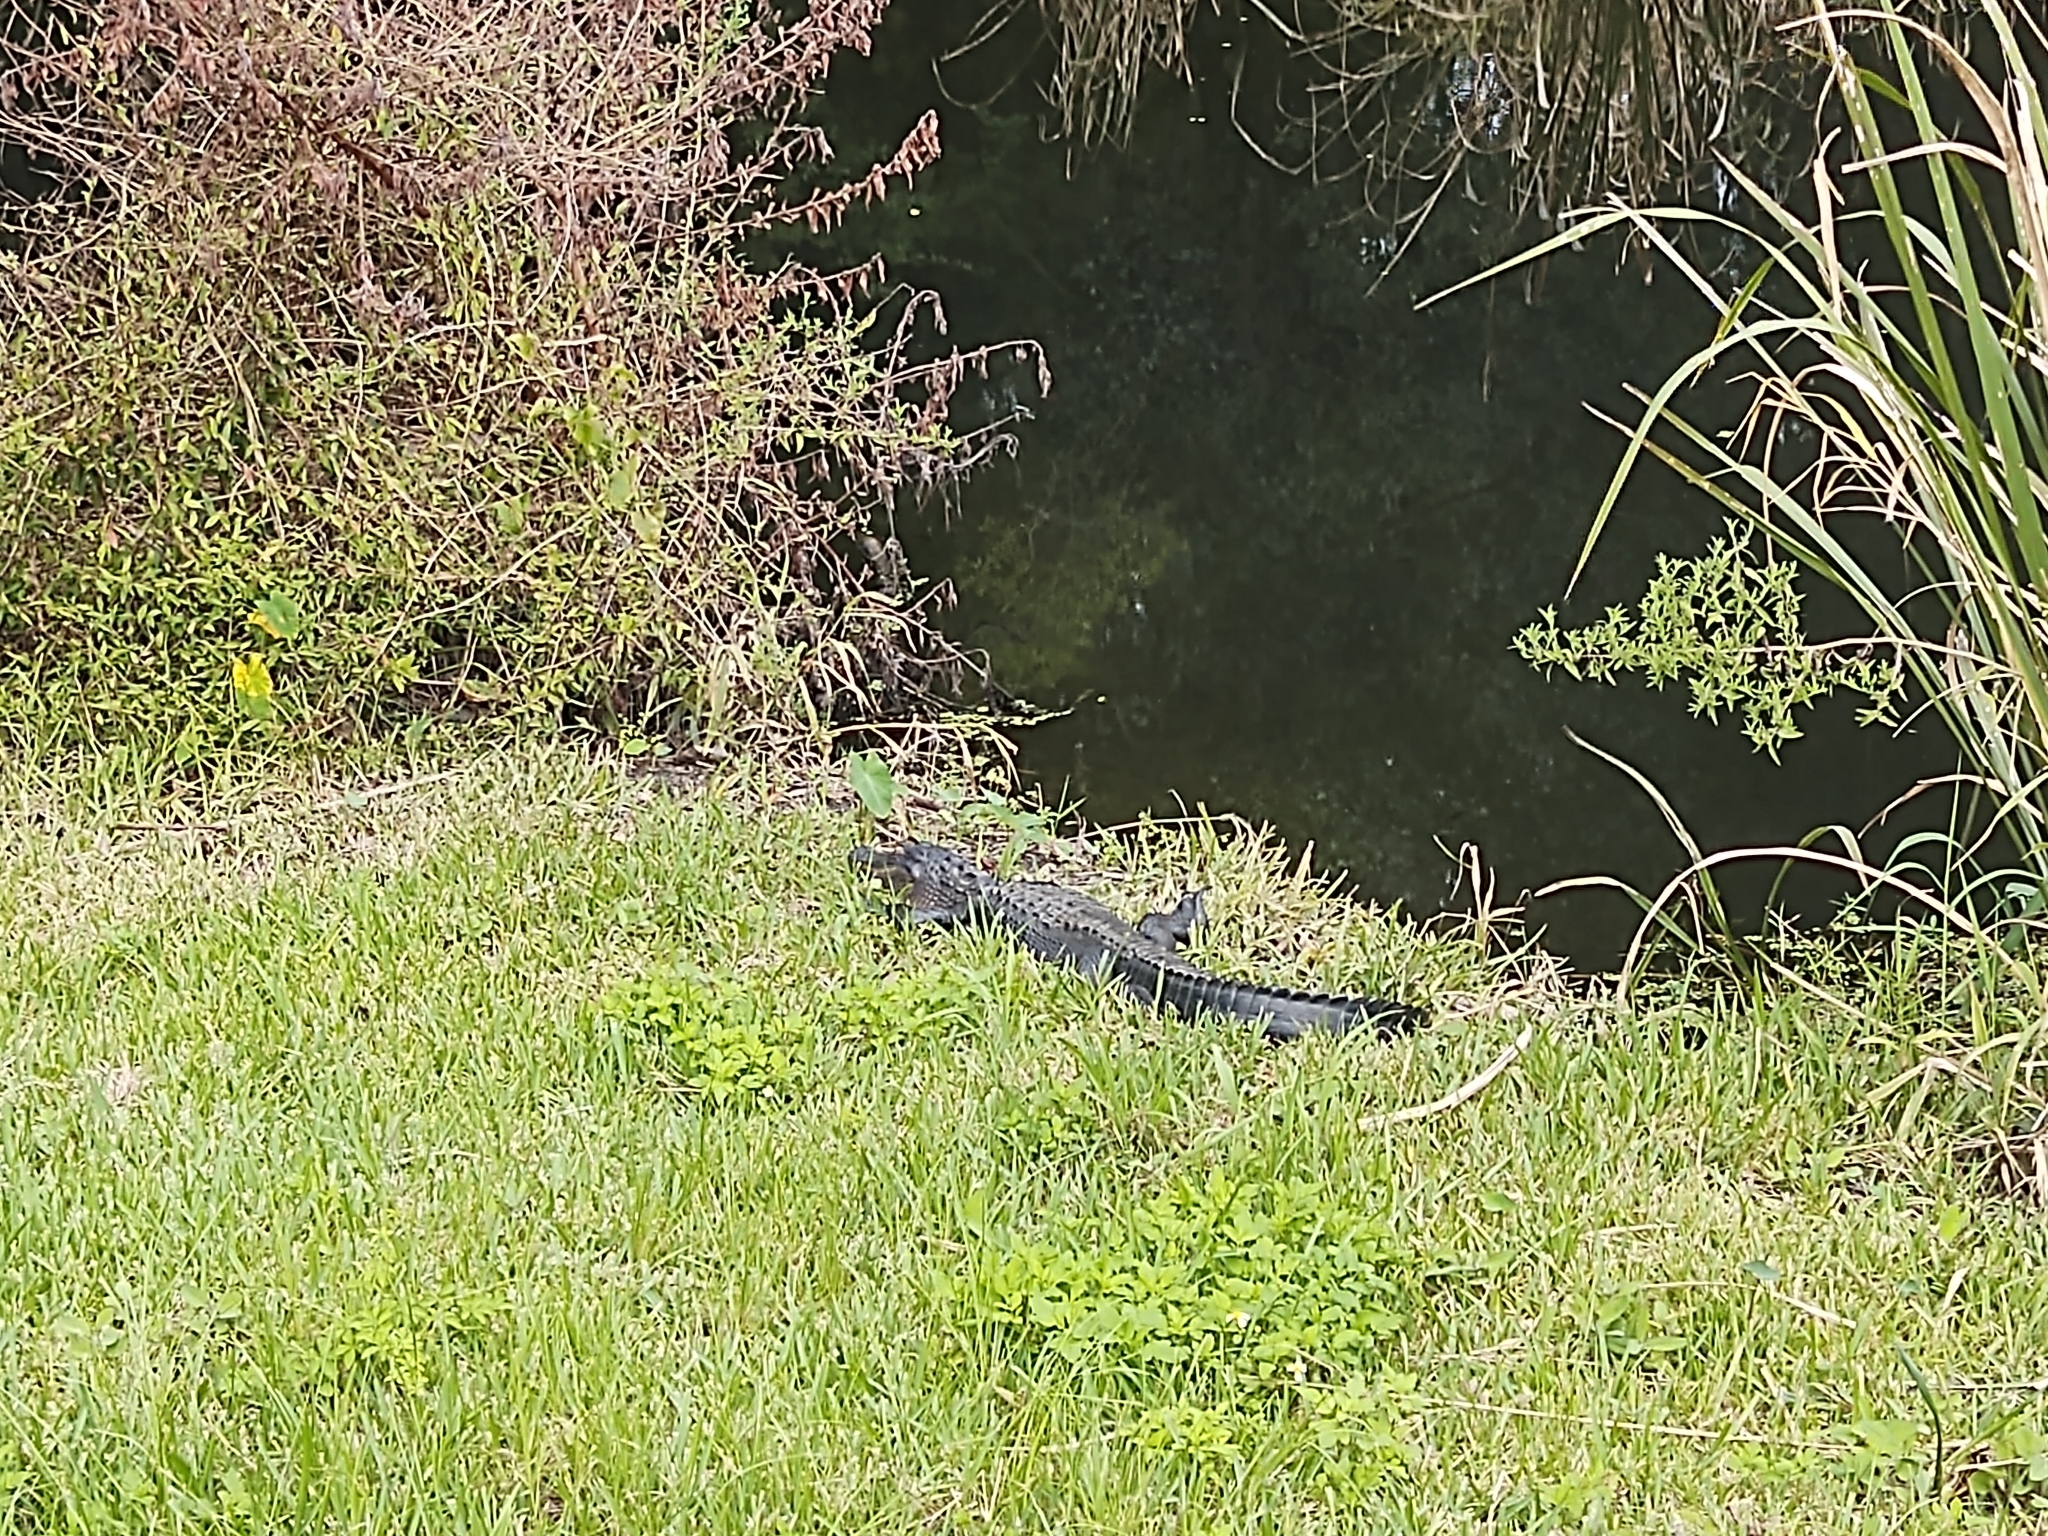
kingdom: Animalia
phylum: Chordata
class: Crocodylia
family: Alligatoridae
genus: Alligator
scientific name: Alligator mississippiensis
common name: American alligator
